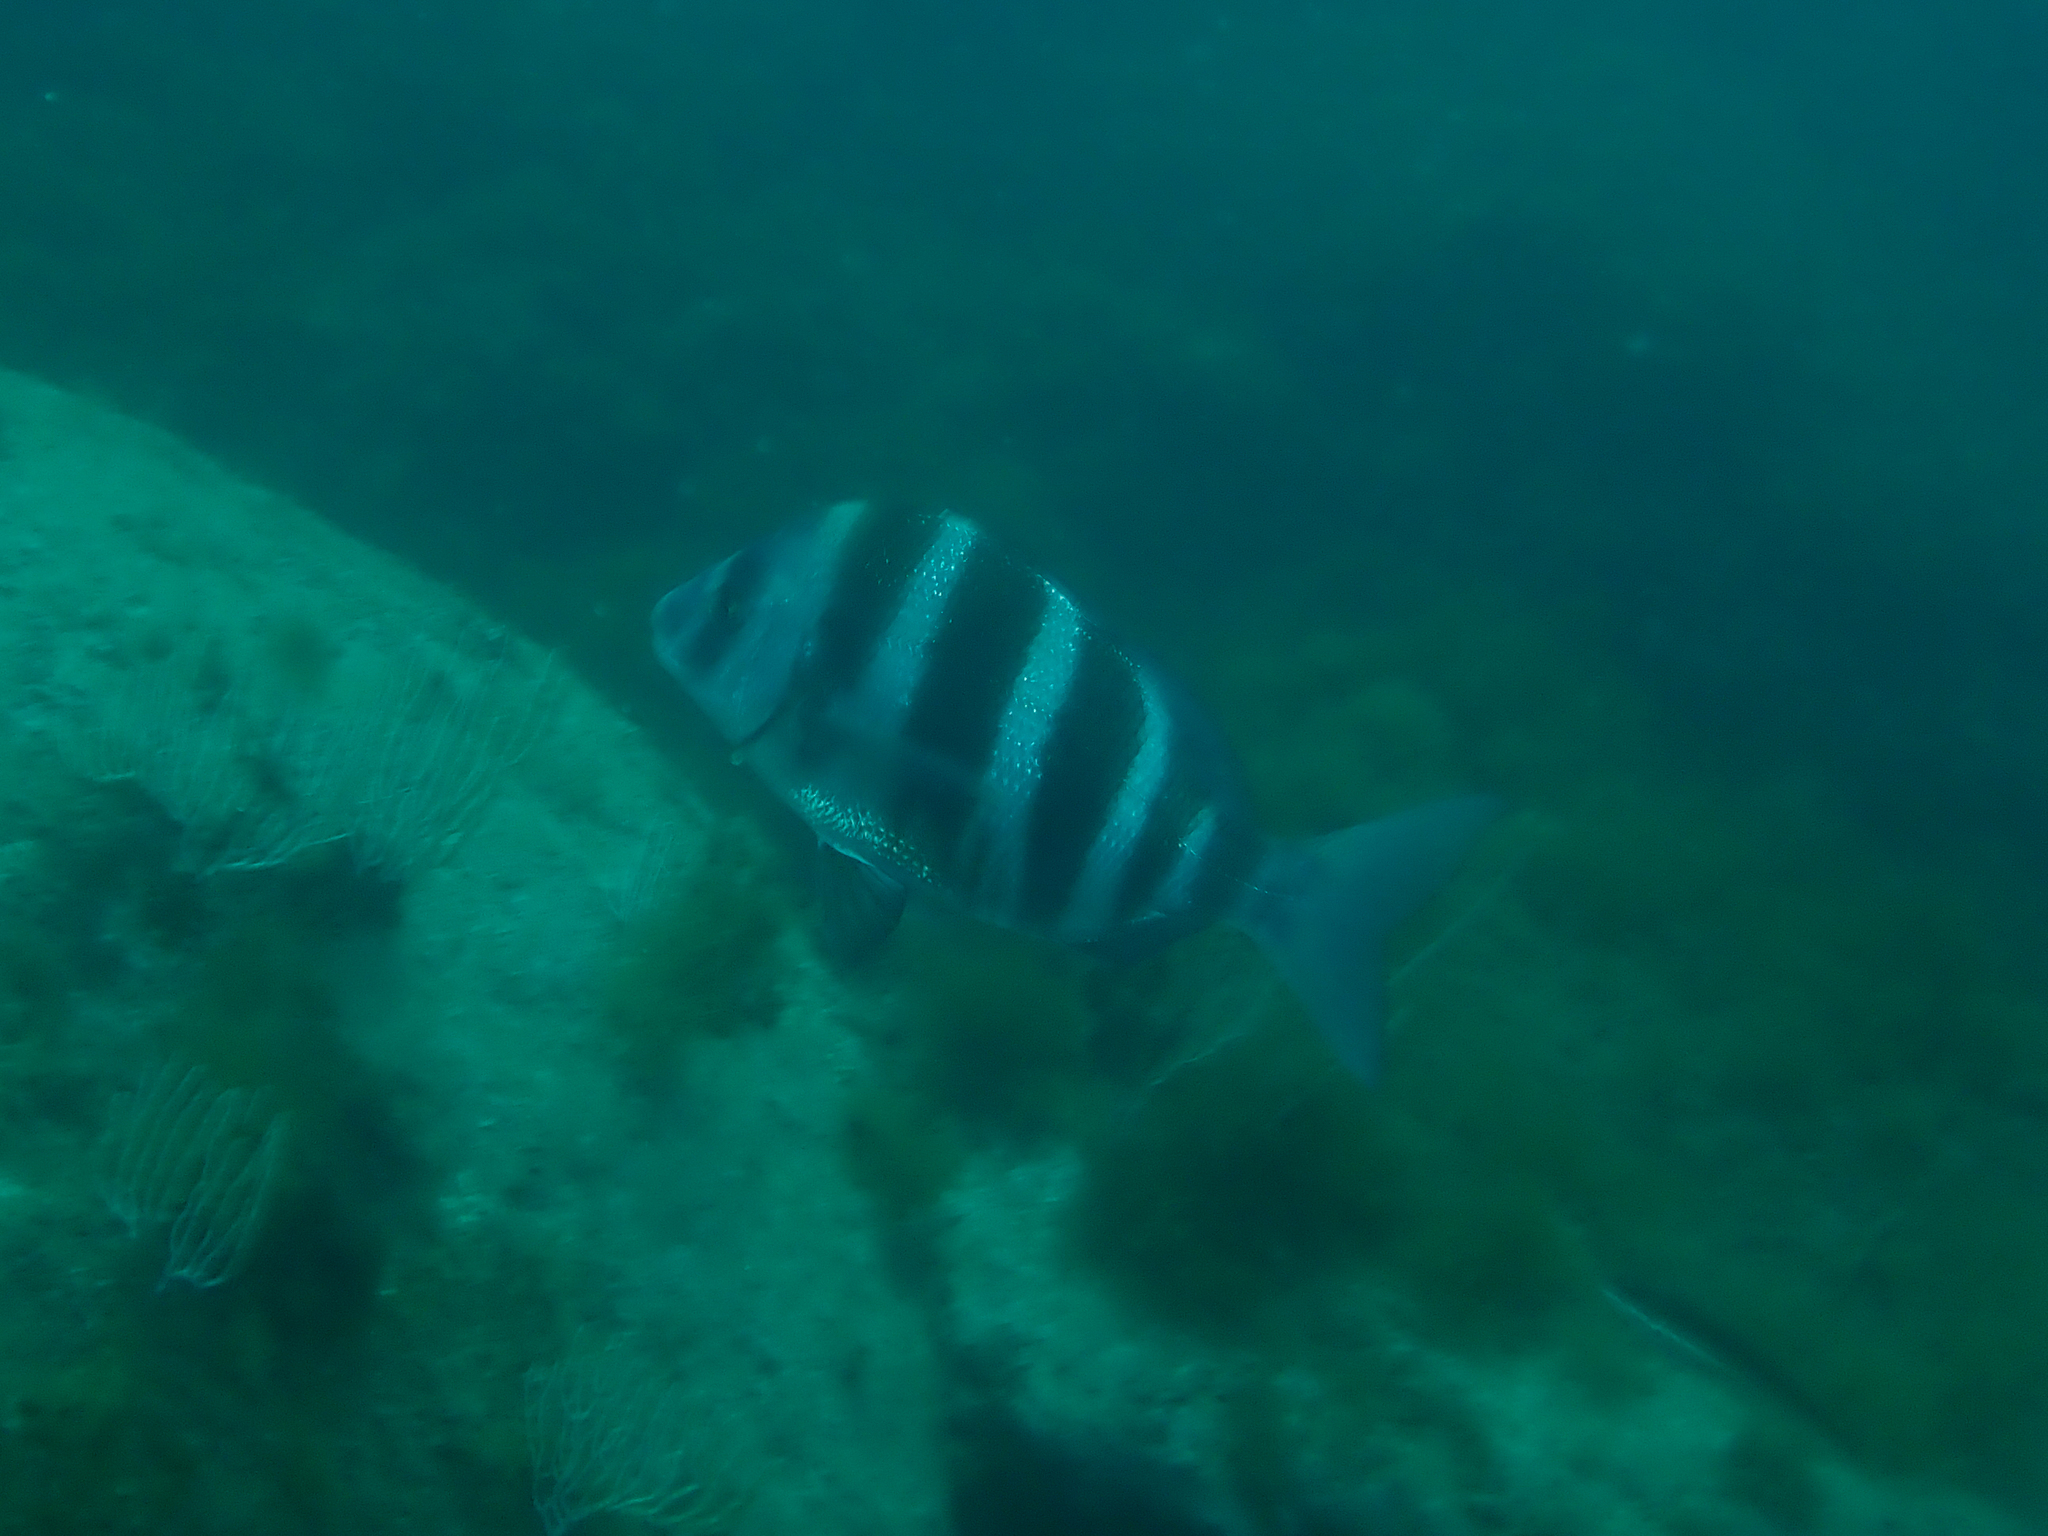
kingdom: Animalia
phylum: Chordata
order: Perciformes
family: Sparidae
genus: Diplodus
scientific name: Diplodus cervinus
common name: Oman porgy
